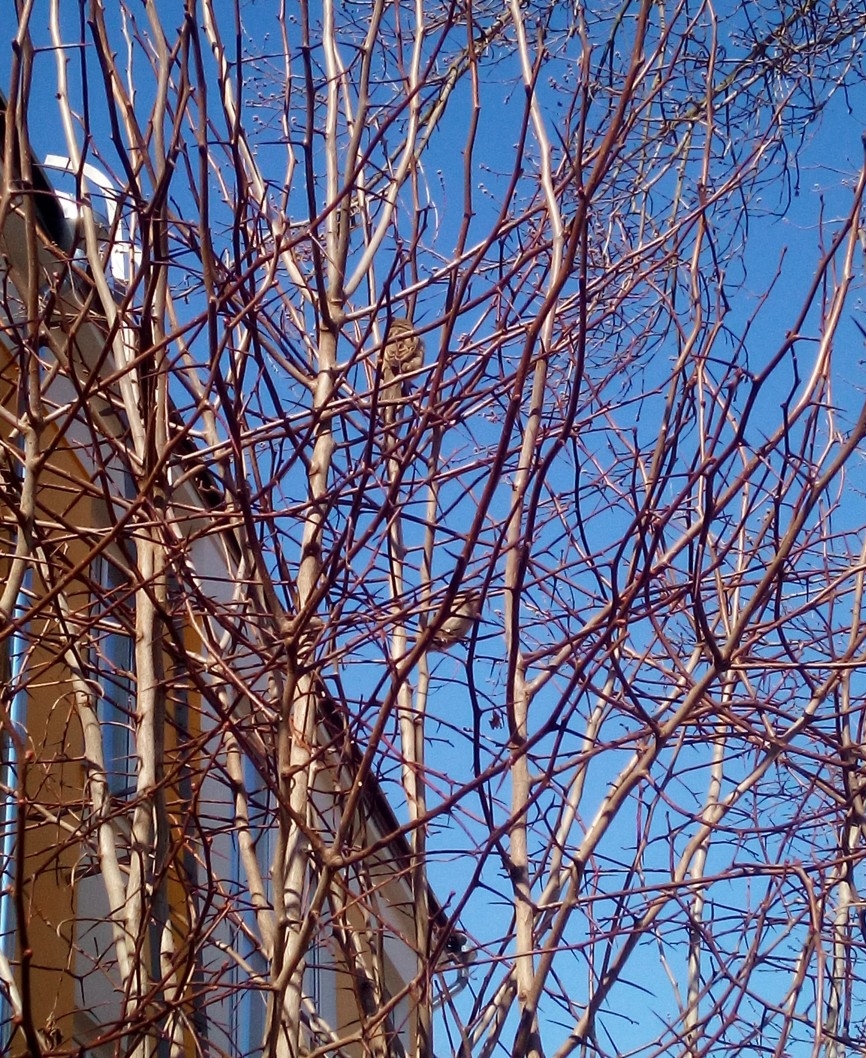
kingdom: Animalia
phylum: Chordata
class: Aves
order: Passeriformes
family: Passeridae
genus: Passer
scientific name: Passer domesticus
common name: House sparrow
